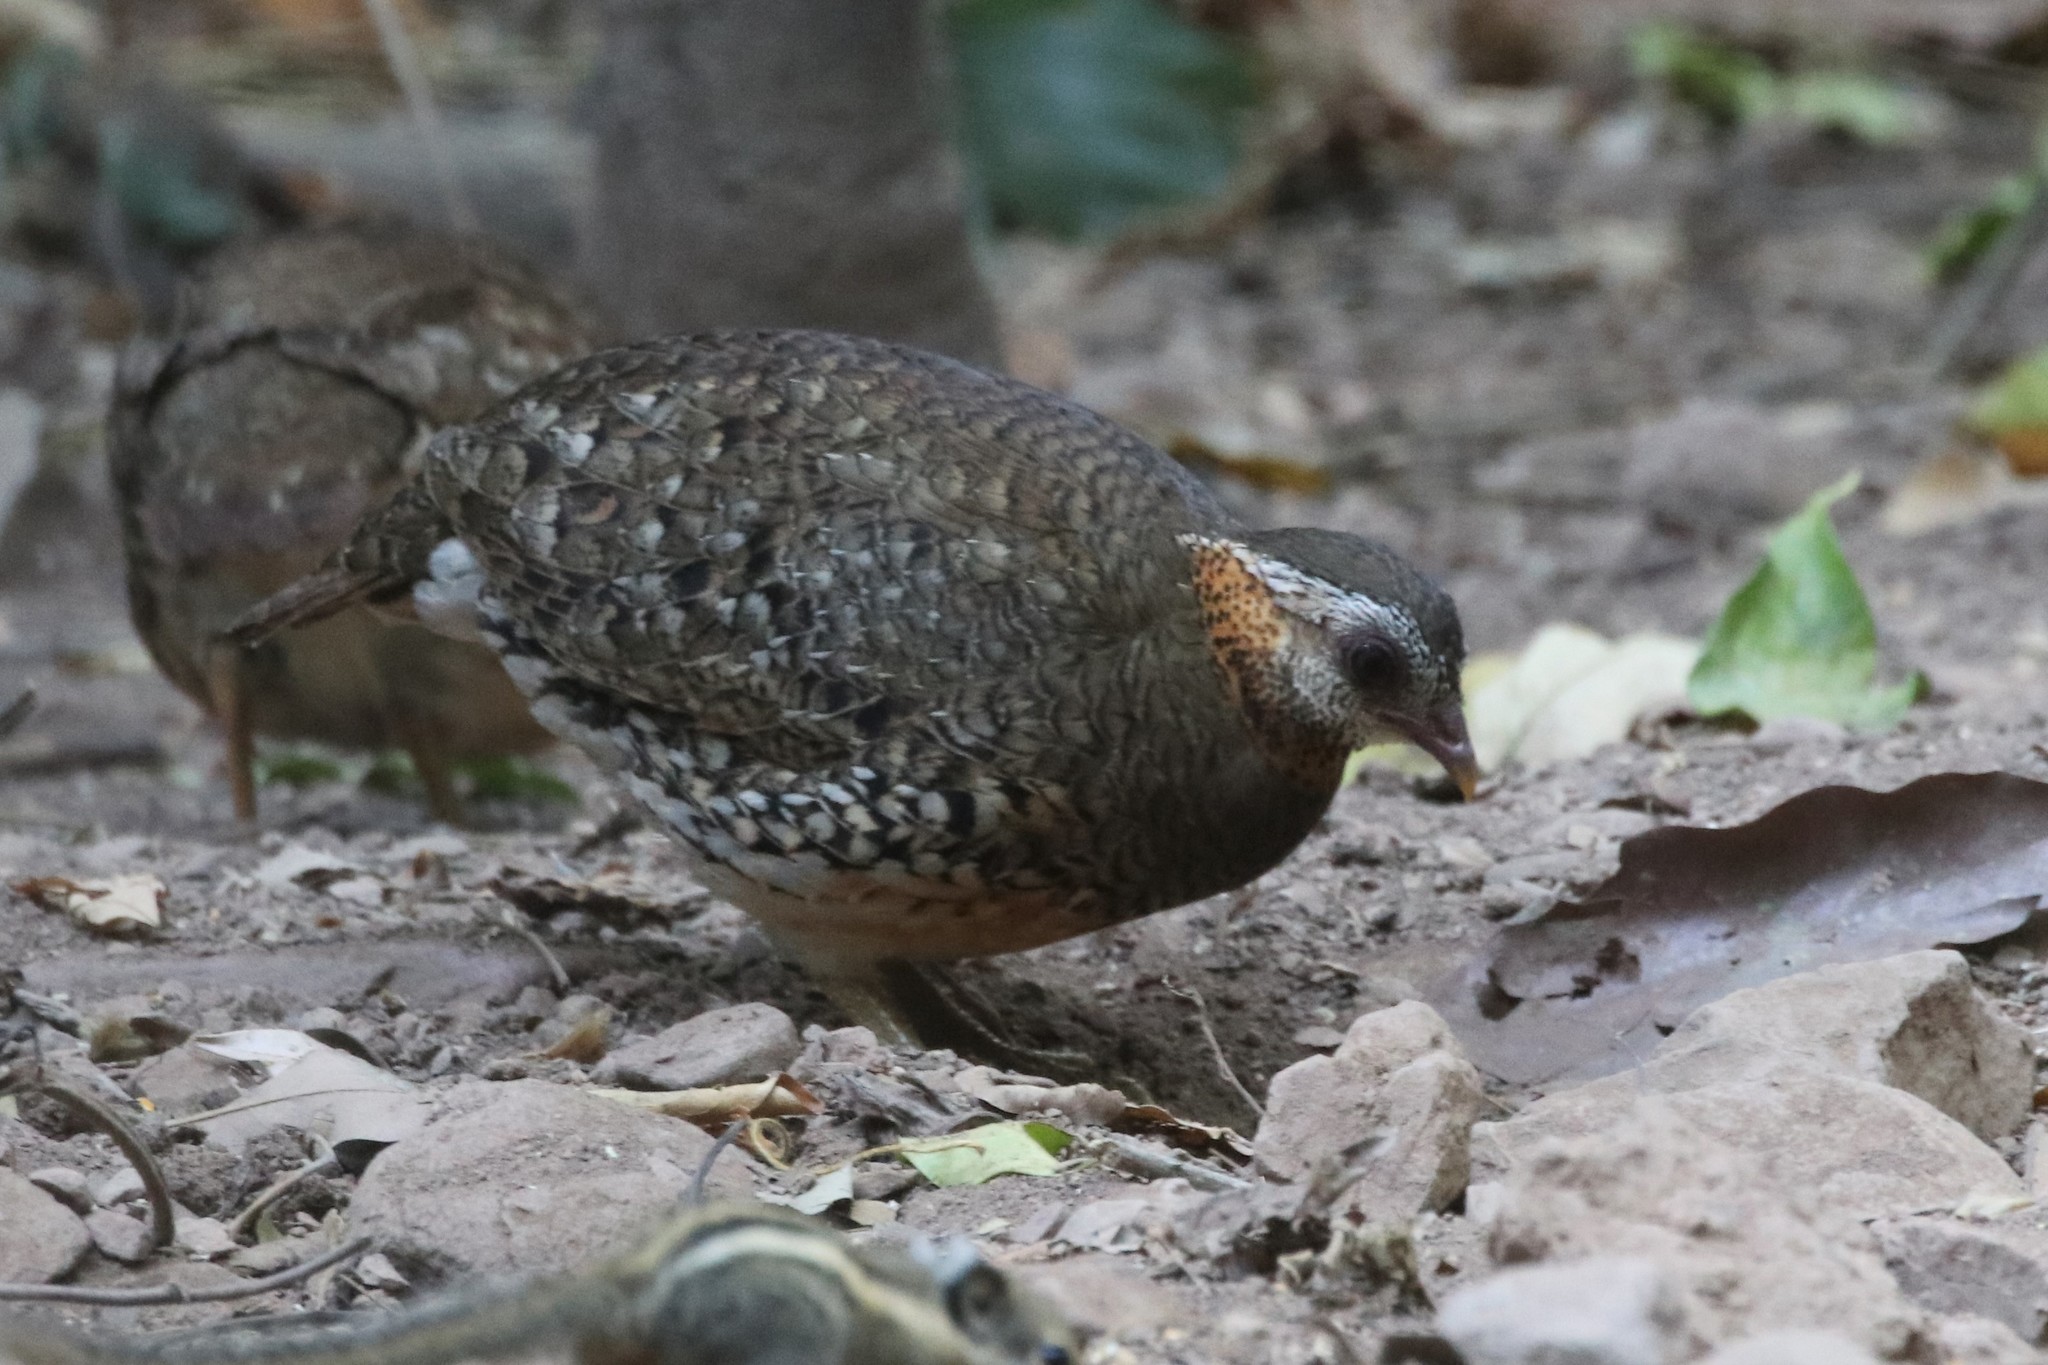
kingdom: Animalia
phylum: Chordata
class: Aves
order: Galliformes
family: Phasianidae
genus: Tropicoperdix
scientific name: Tropicoperdix chloropus
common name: Green-legged partridge
